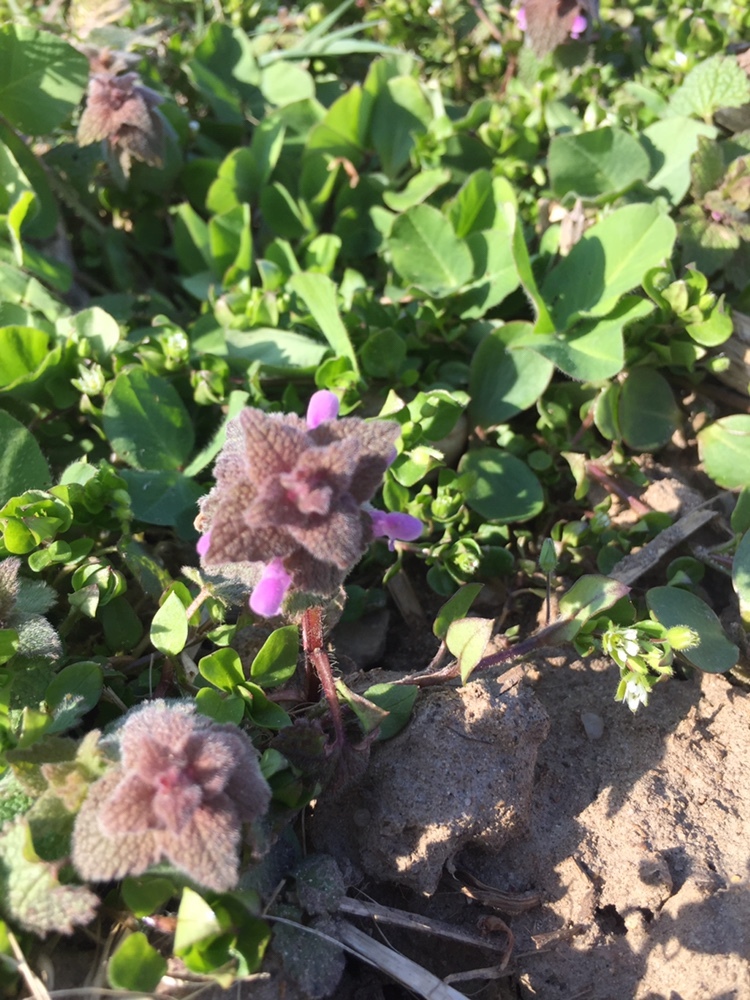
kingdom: Plantae
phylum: Tracheophyta
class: Magnoliopsida
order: Lamiales
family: Lamiaceae
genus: Lamium
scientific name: Lamium purpureum
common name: Red dead-nettle
